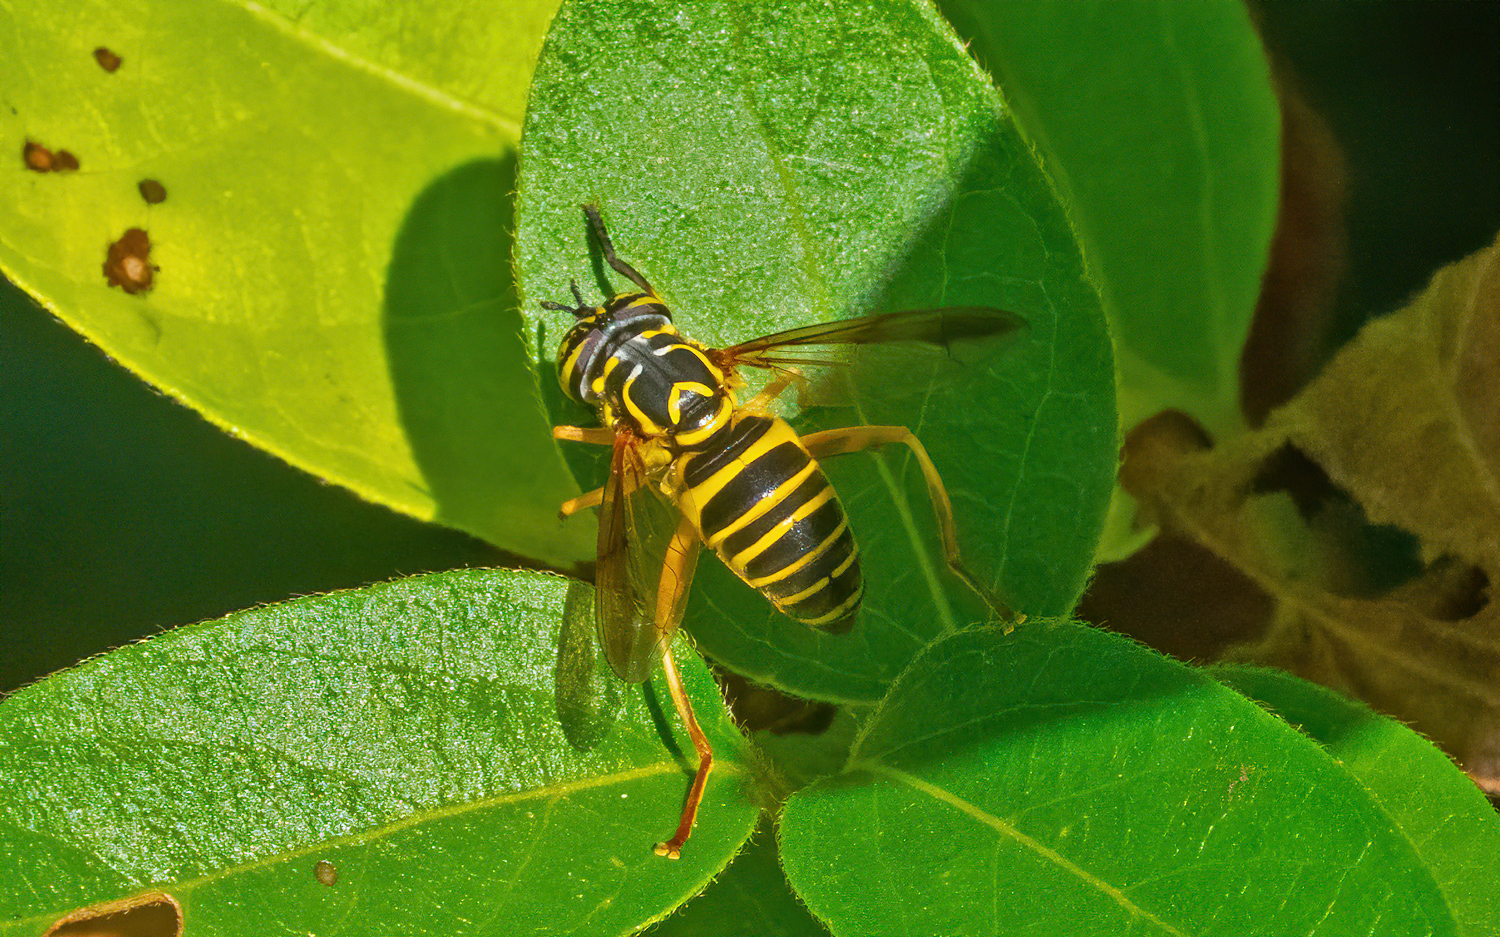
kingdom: Animalia
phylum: Arthropoda
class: Insecta
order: Diptera
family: Syrphidae
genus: Spilomyia
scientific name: Spilomyia longicornis
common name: Eastern hornet fly
